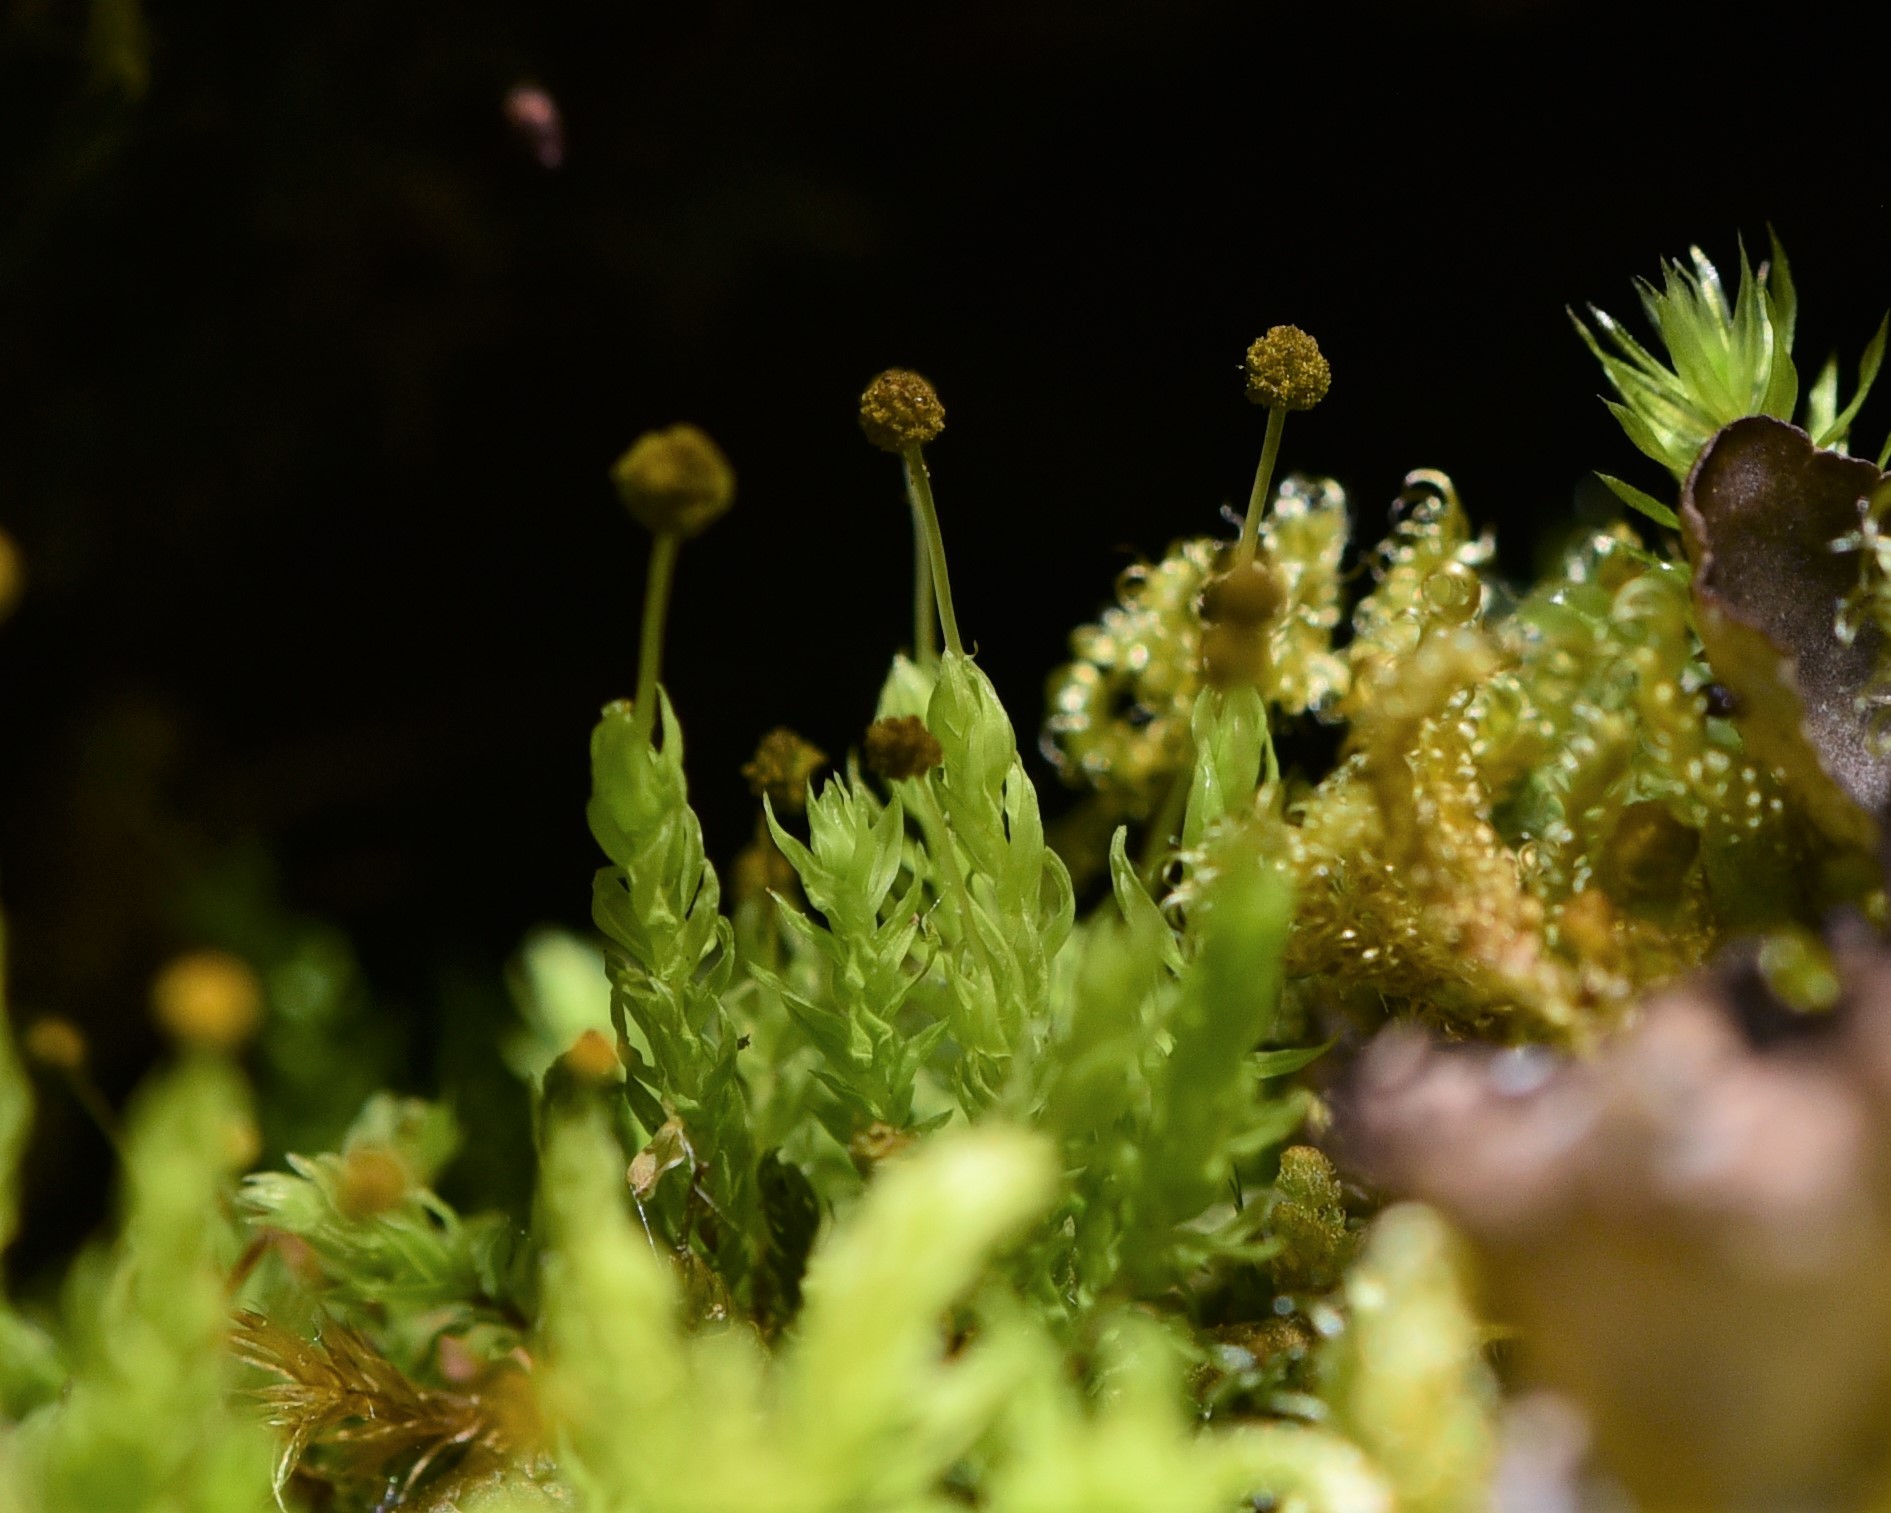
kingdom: Plantae
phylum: Bryophyta
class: Bryopsida
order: Aulacomniales
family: Aulacomniaceae
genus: Aulacomnium
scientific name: Aulacomnium androgynum
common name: Little groove moss
